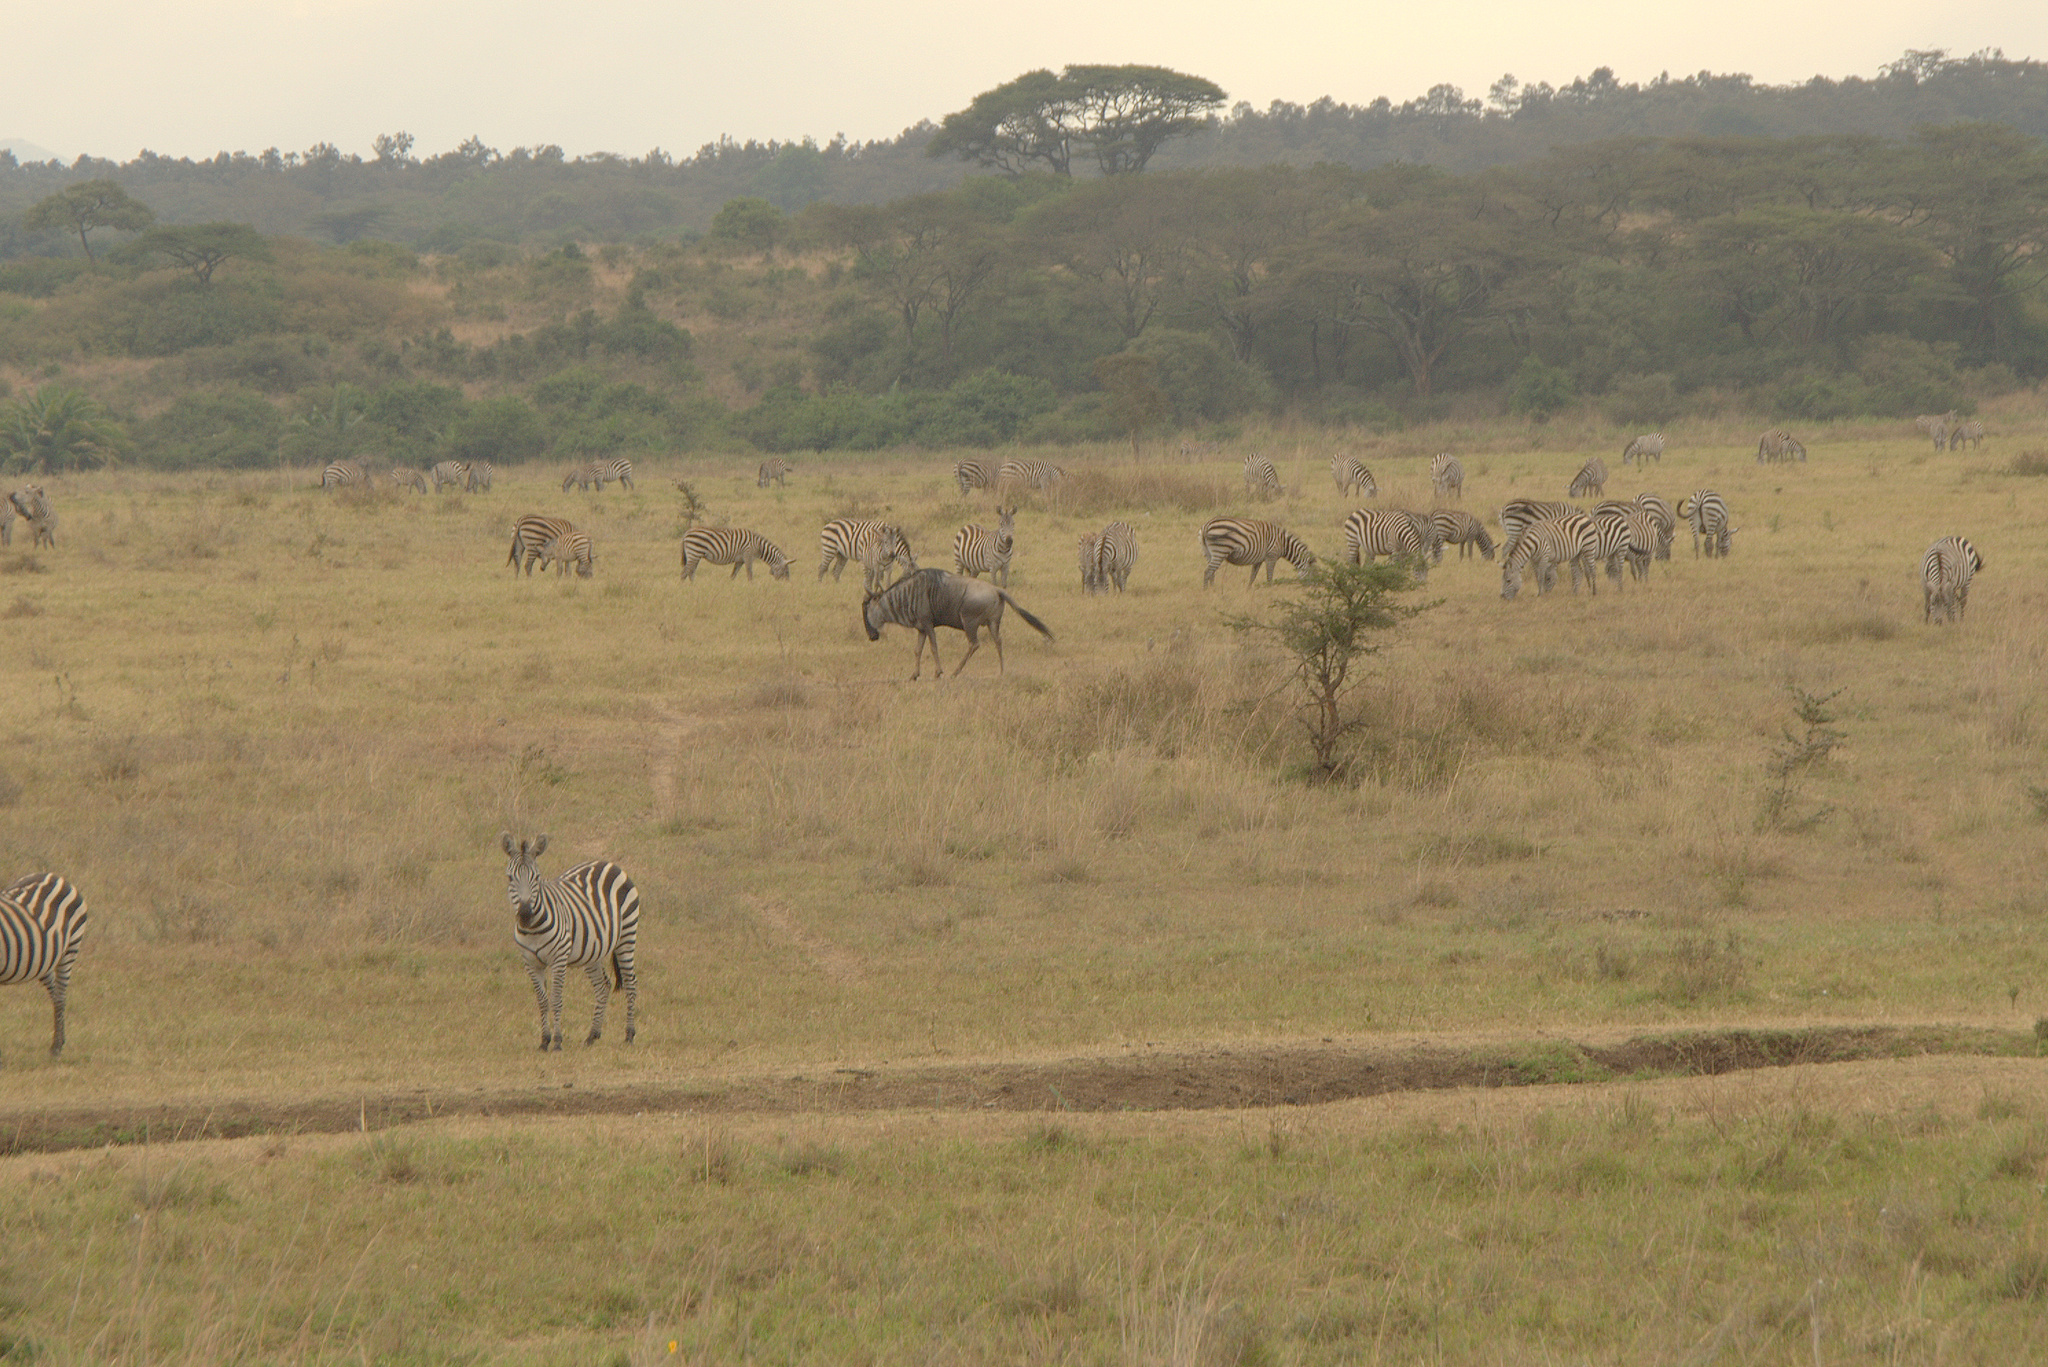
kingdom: Animalia
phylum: Chordata
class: Mammalia
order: Artiodactyla
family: Bovidae
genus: Connochaetes
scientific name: Connochaetes taurinus
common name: Blue wildebeest
